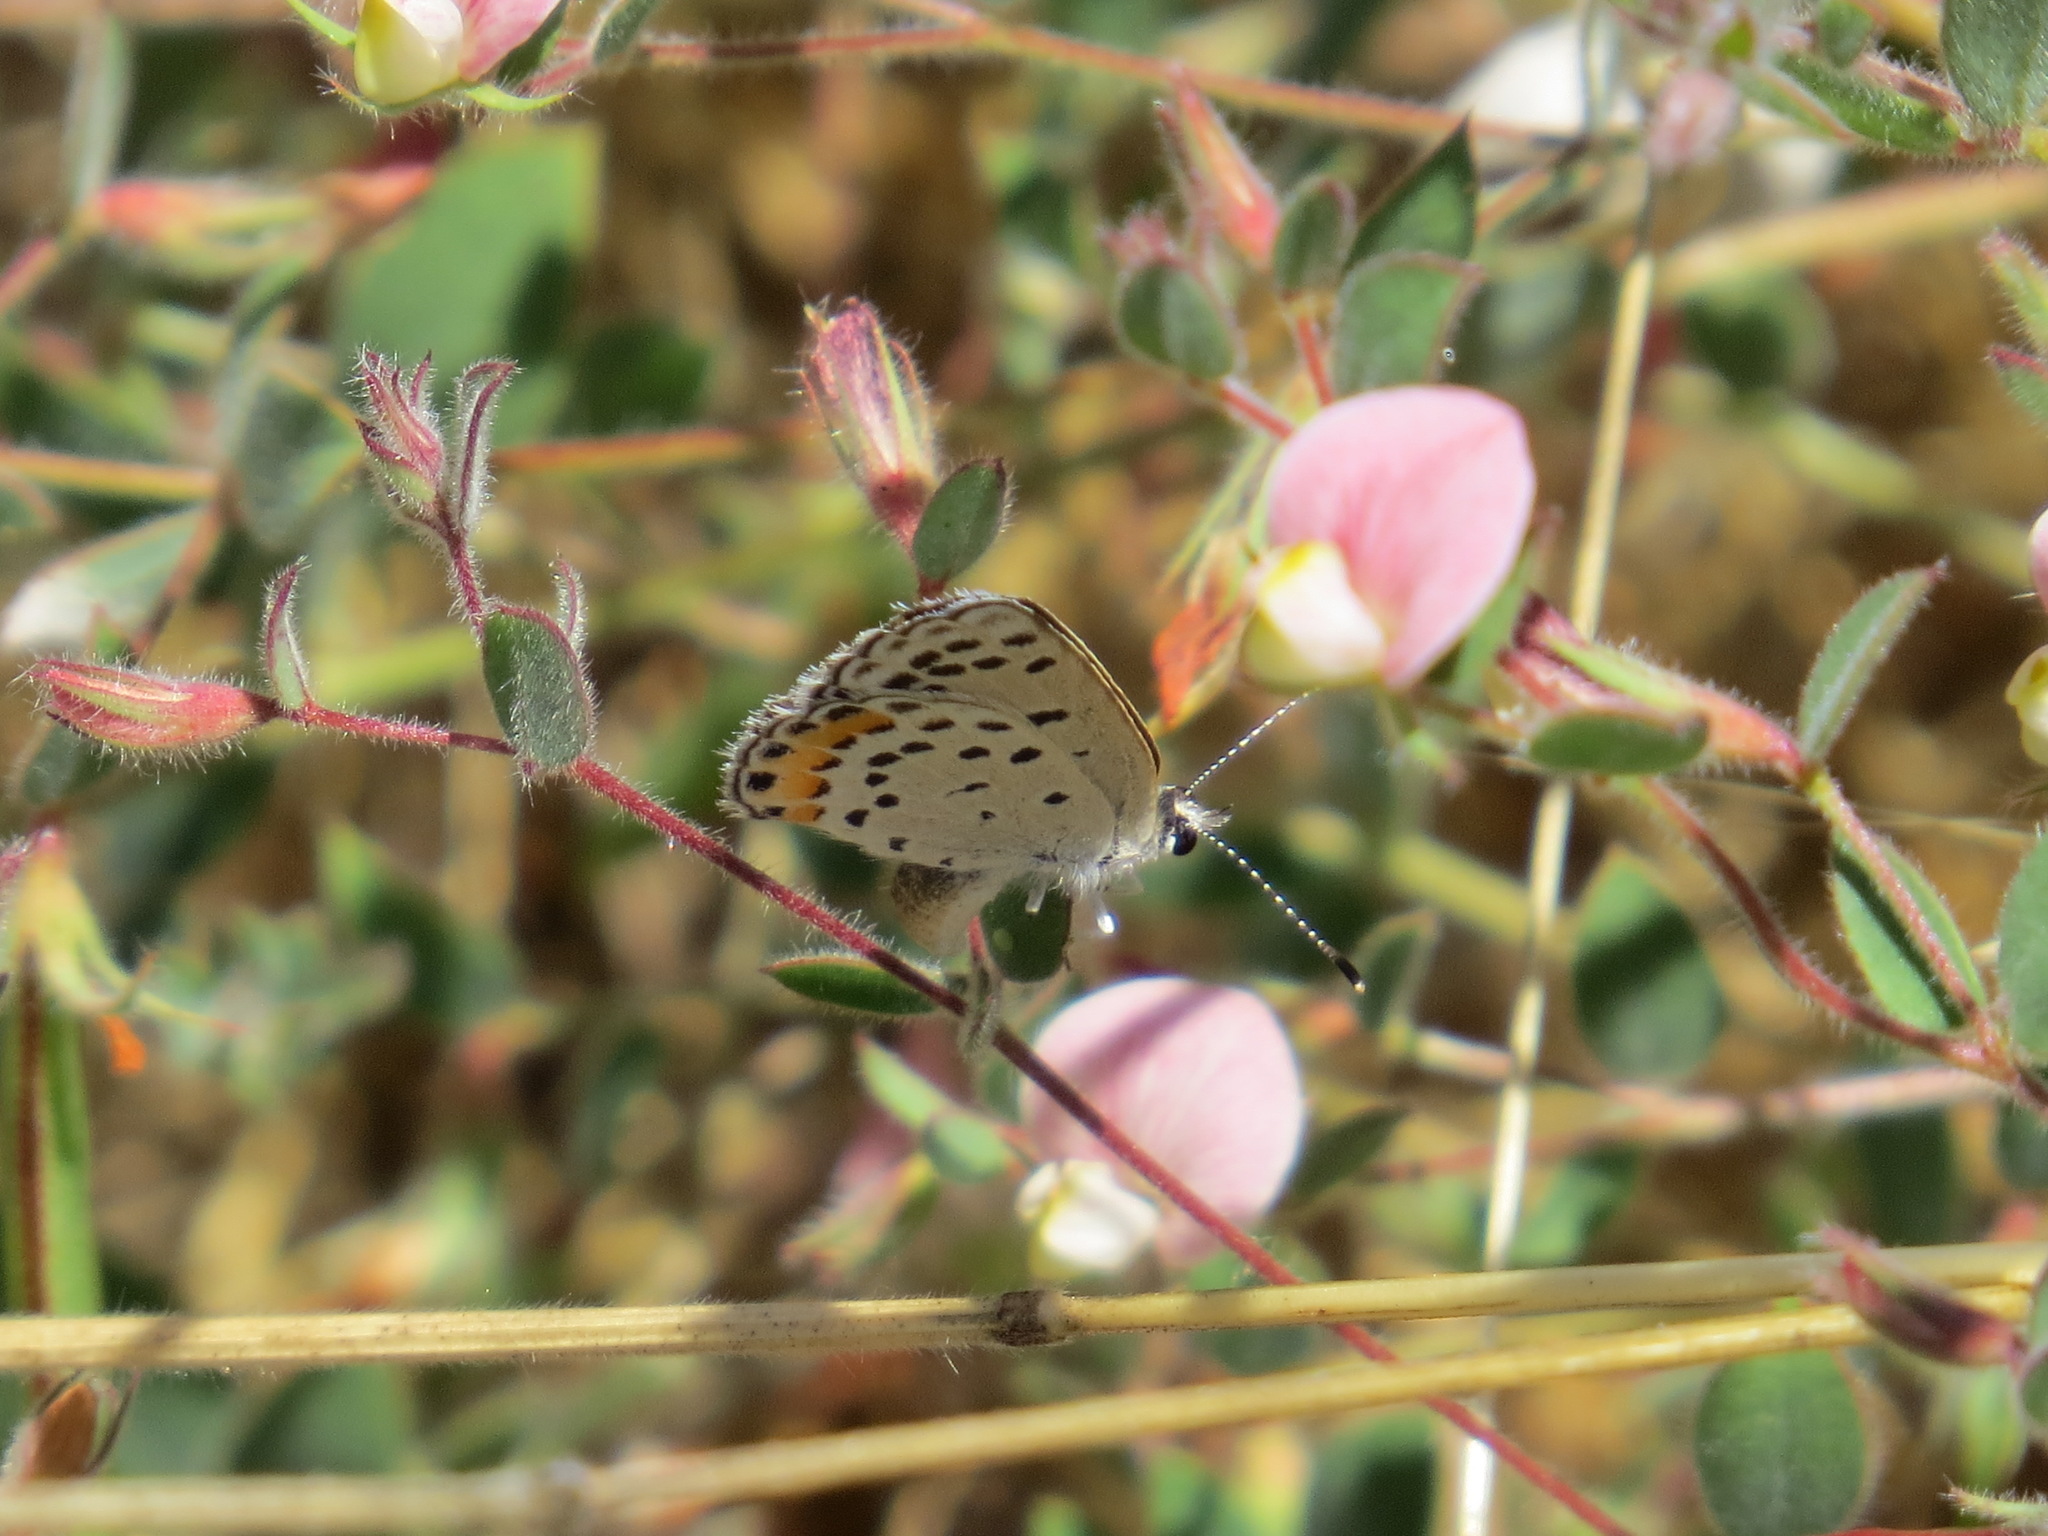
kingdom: Animalia
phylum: Arthropoda
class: Insecta
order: Lepidoptera
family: Lycaenidae
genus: Icaricia
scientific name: Icaricia acmon
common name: Acmon blue
